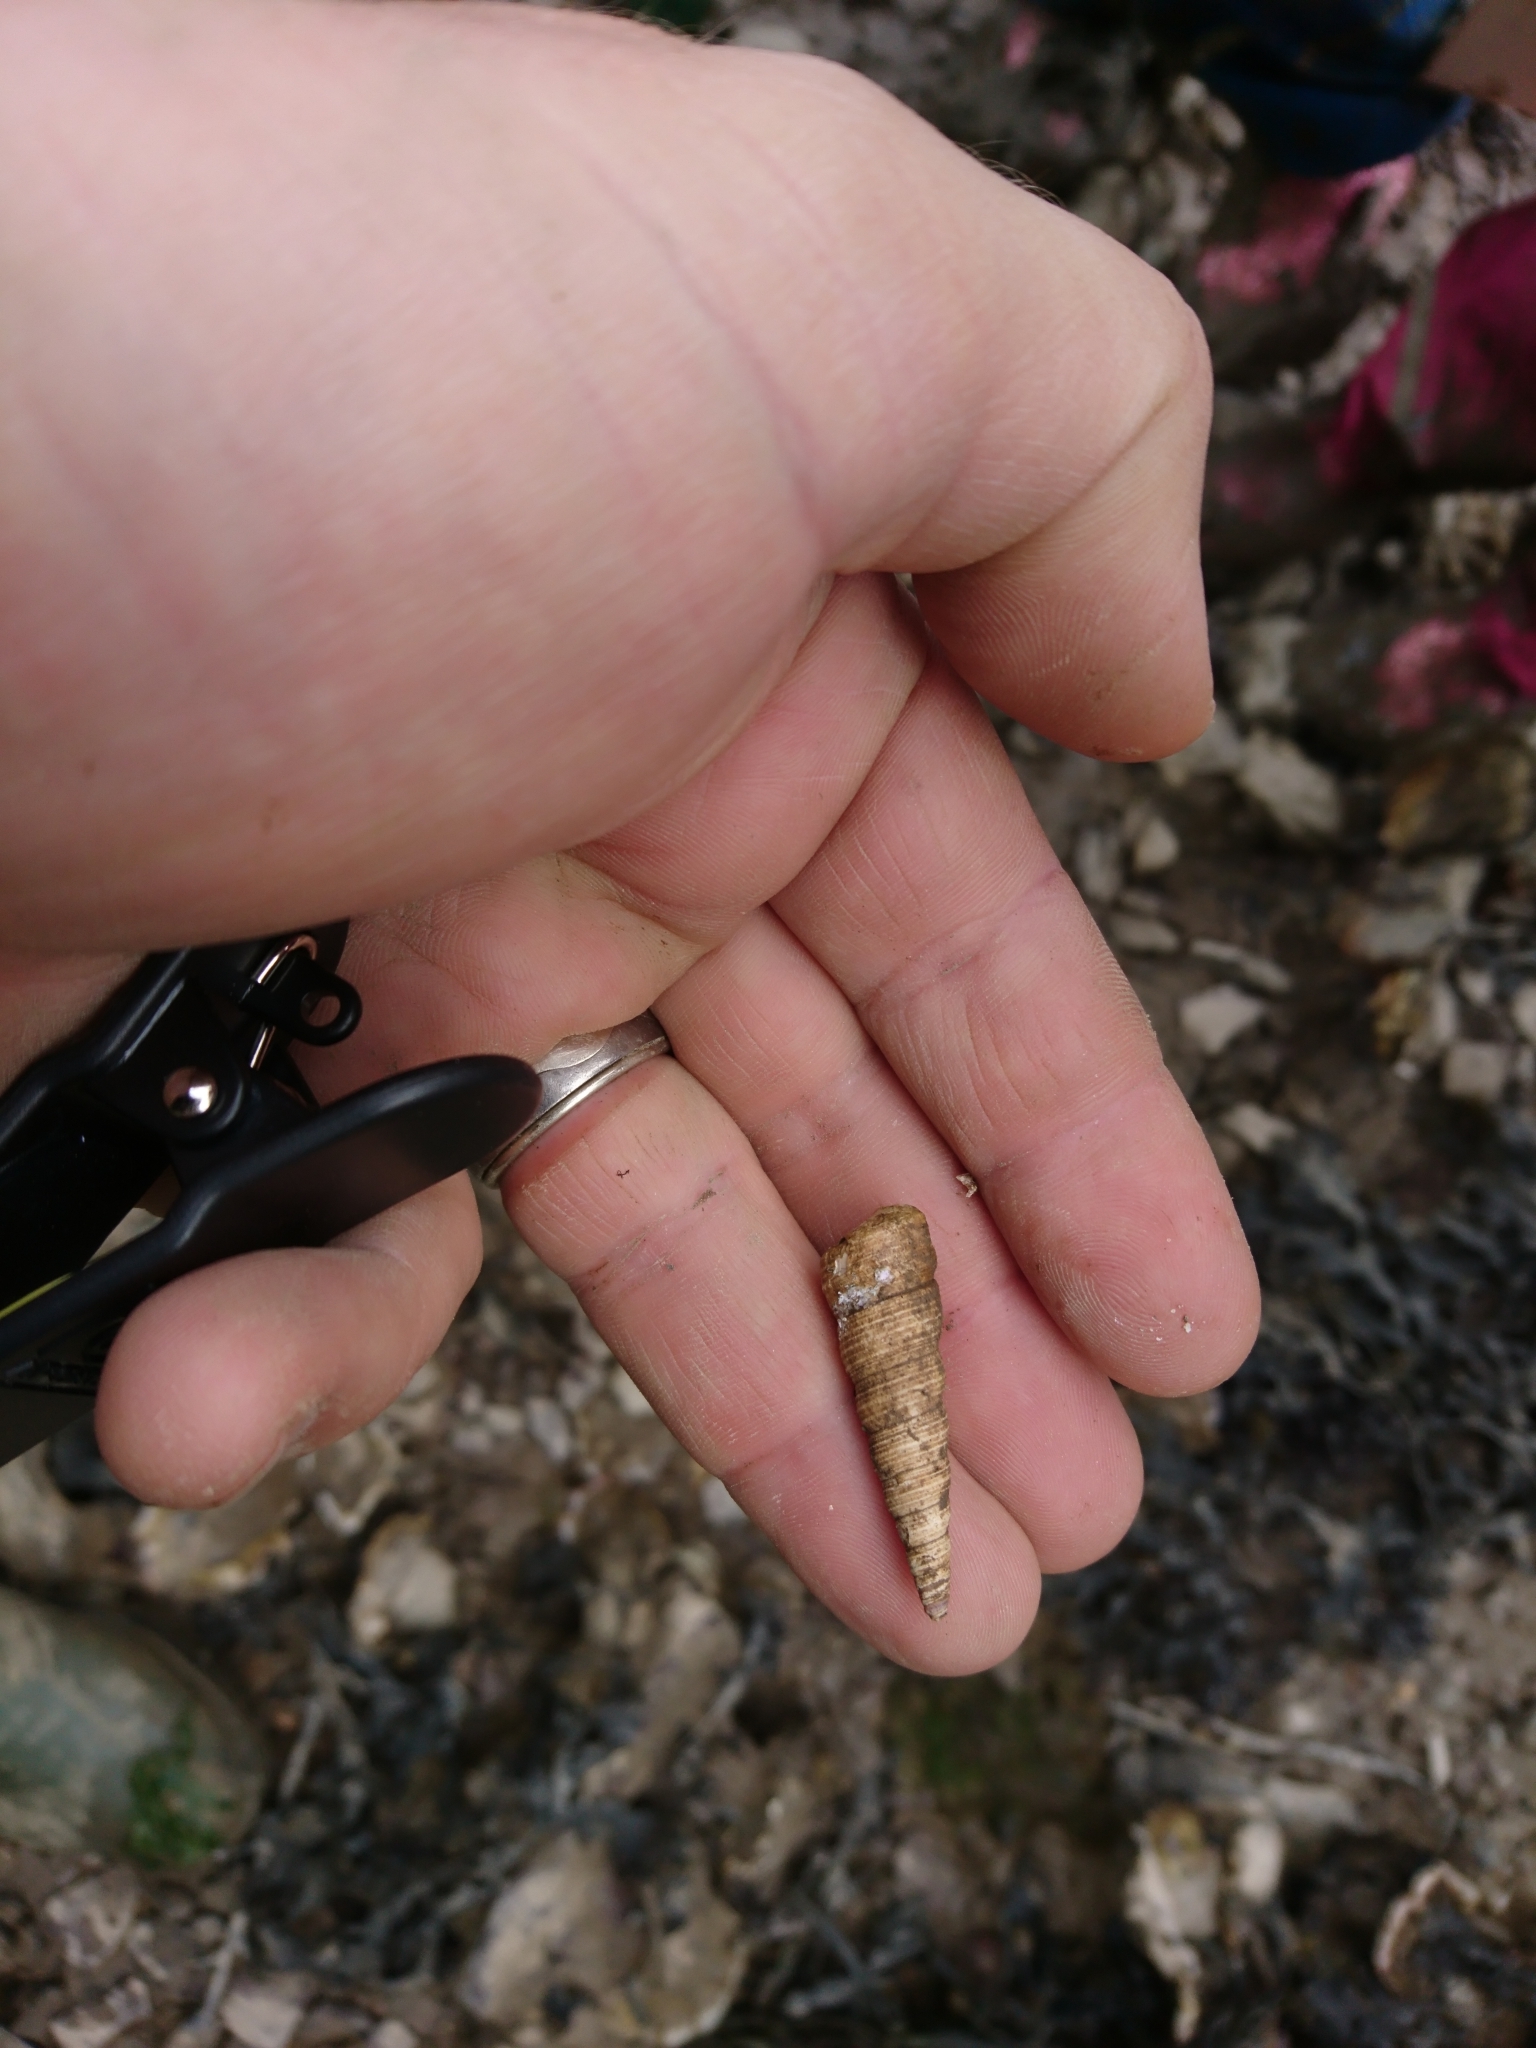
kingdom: Animalia
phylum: Mollusca
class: Gastropoda
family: Turritellidae
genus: Turritellinella
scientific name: Turritellinella tricarinata
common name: Auger shell
